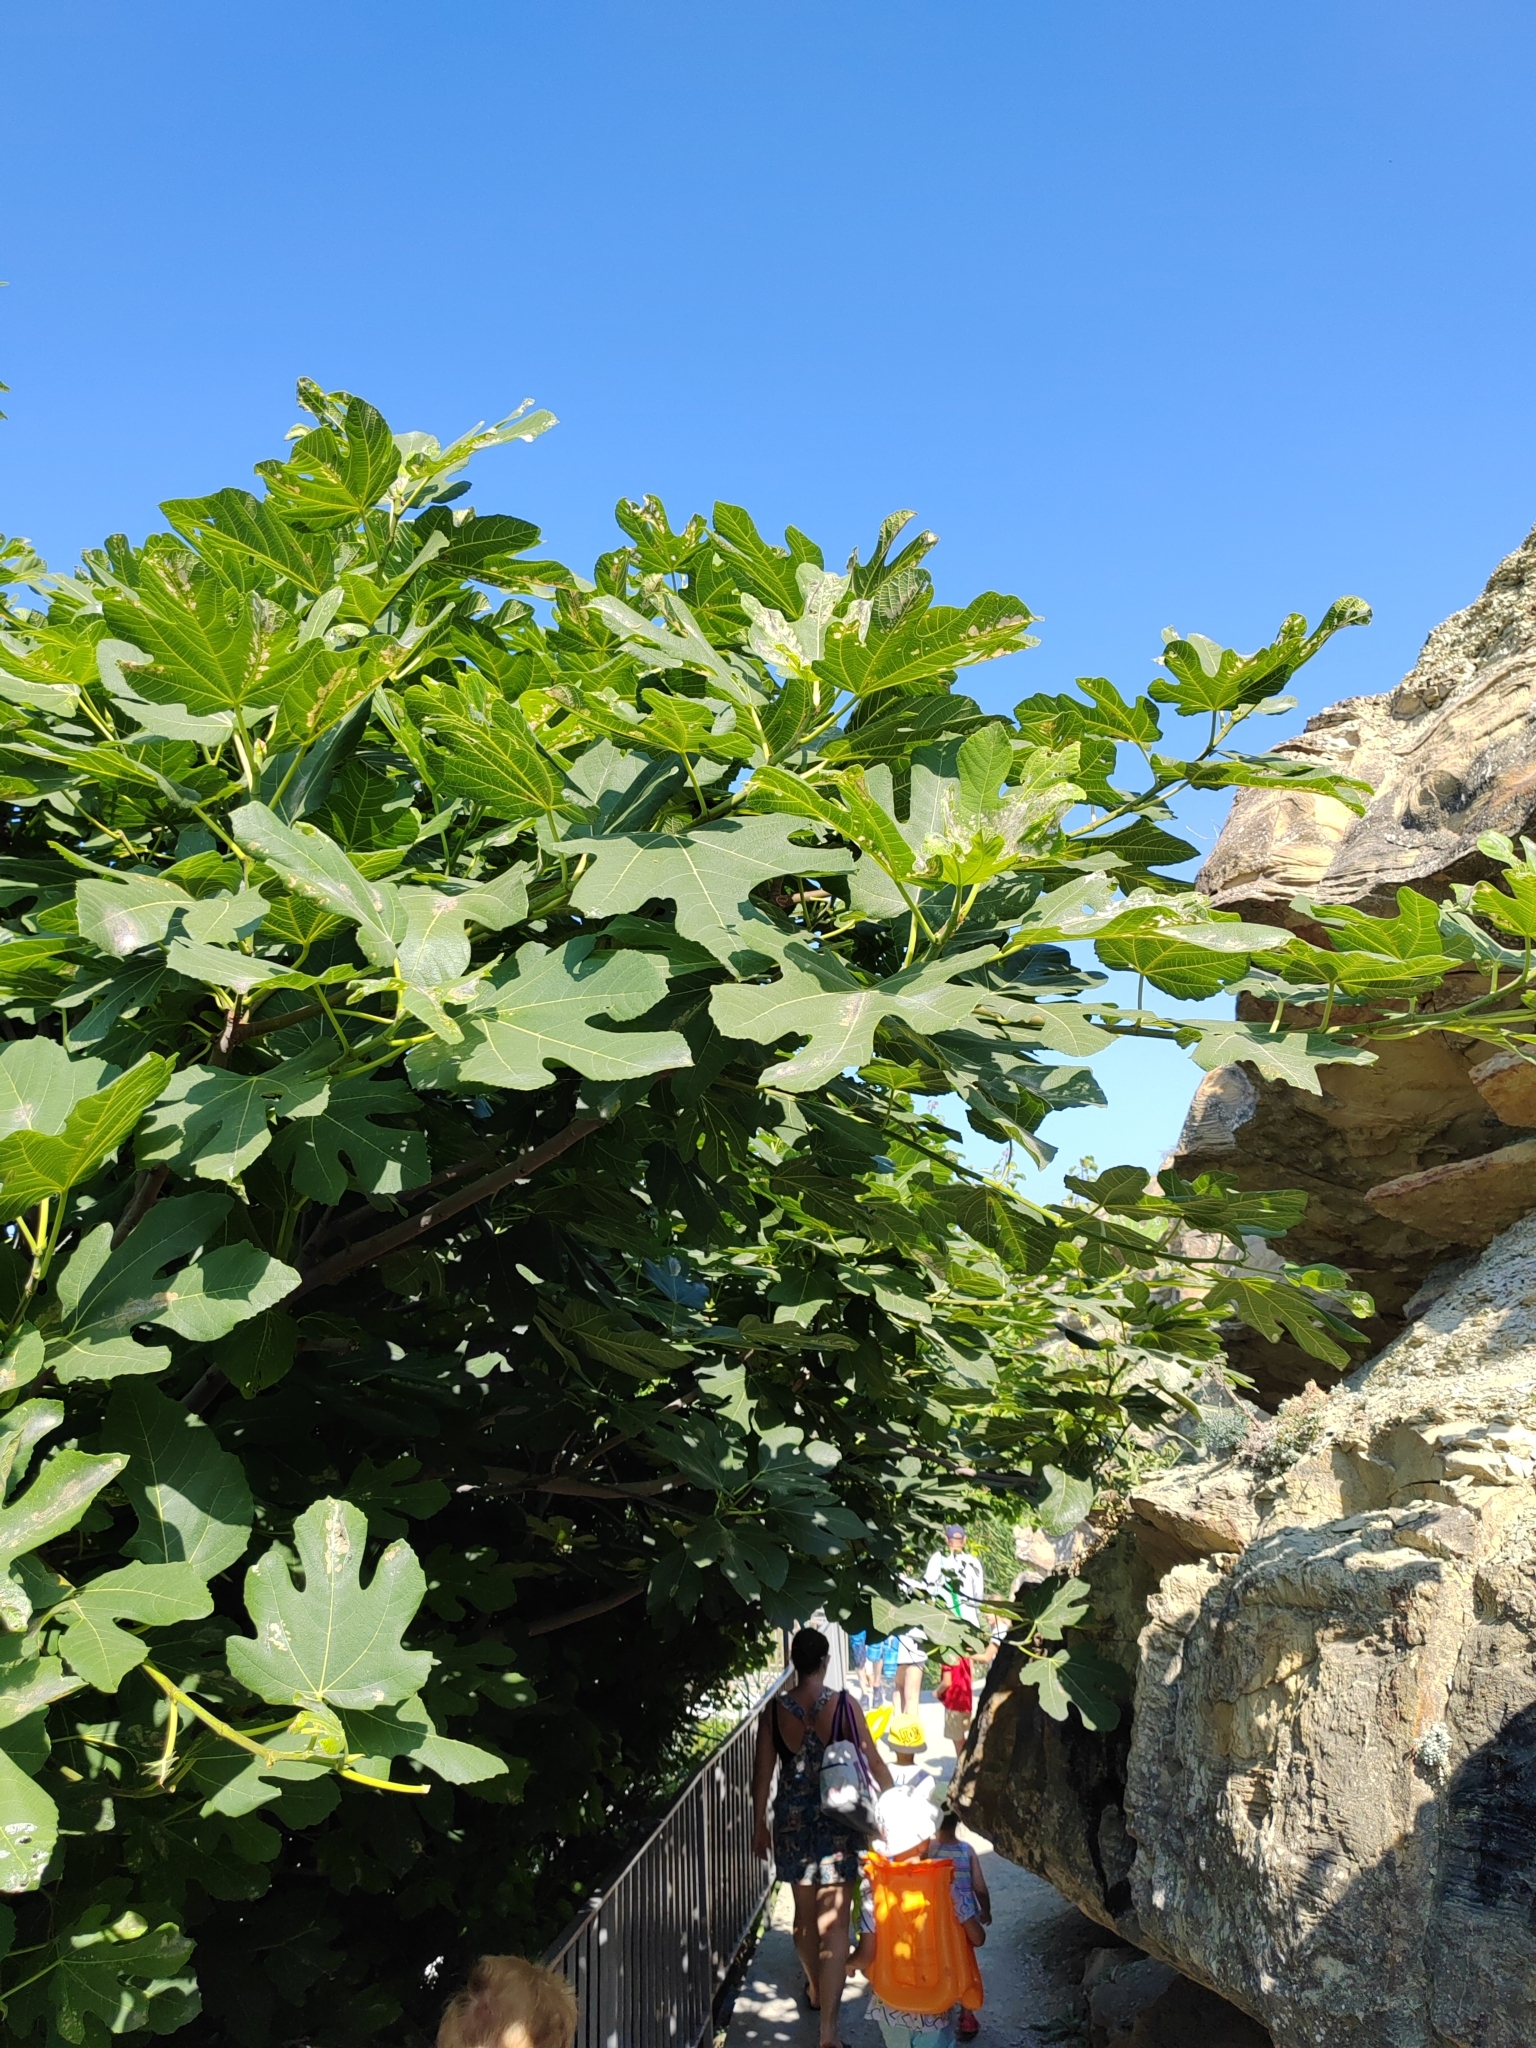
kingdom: Plantae
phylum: Tracheophyta
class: Magnoliopsida
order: Rosales
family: Moraceae
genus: Ficus
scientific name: Ficus carica
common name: Fig
